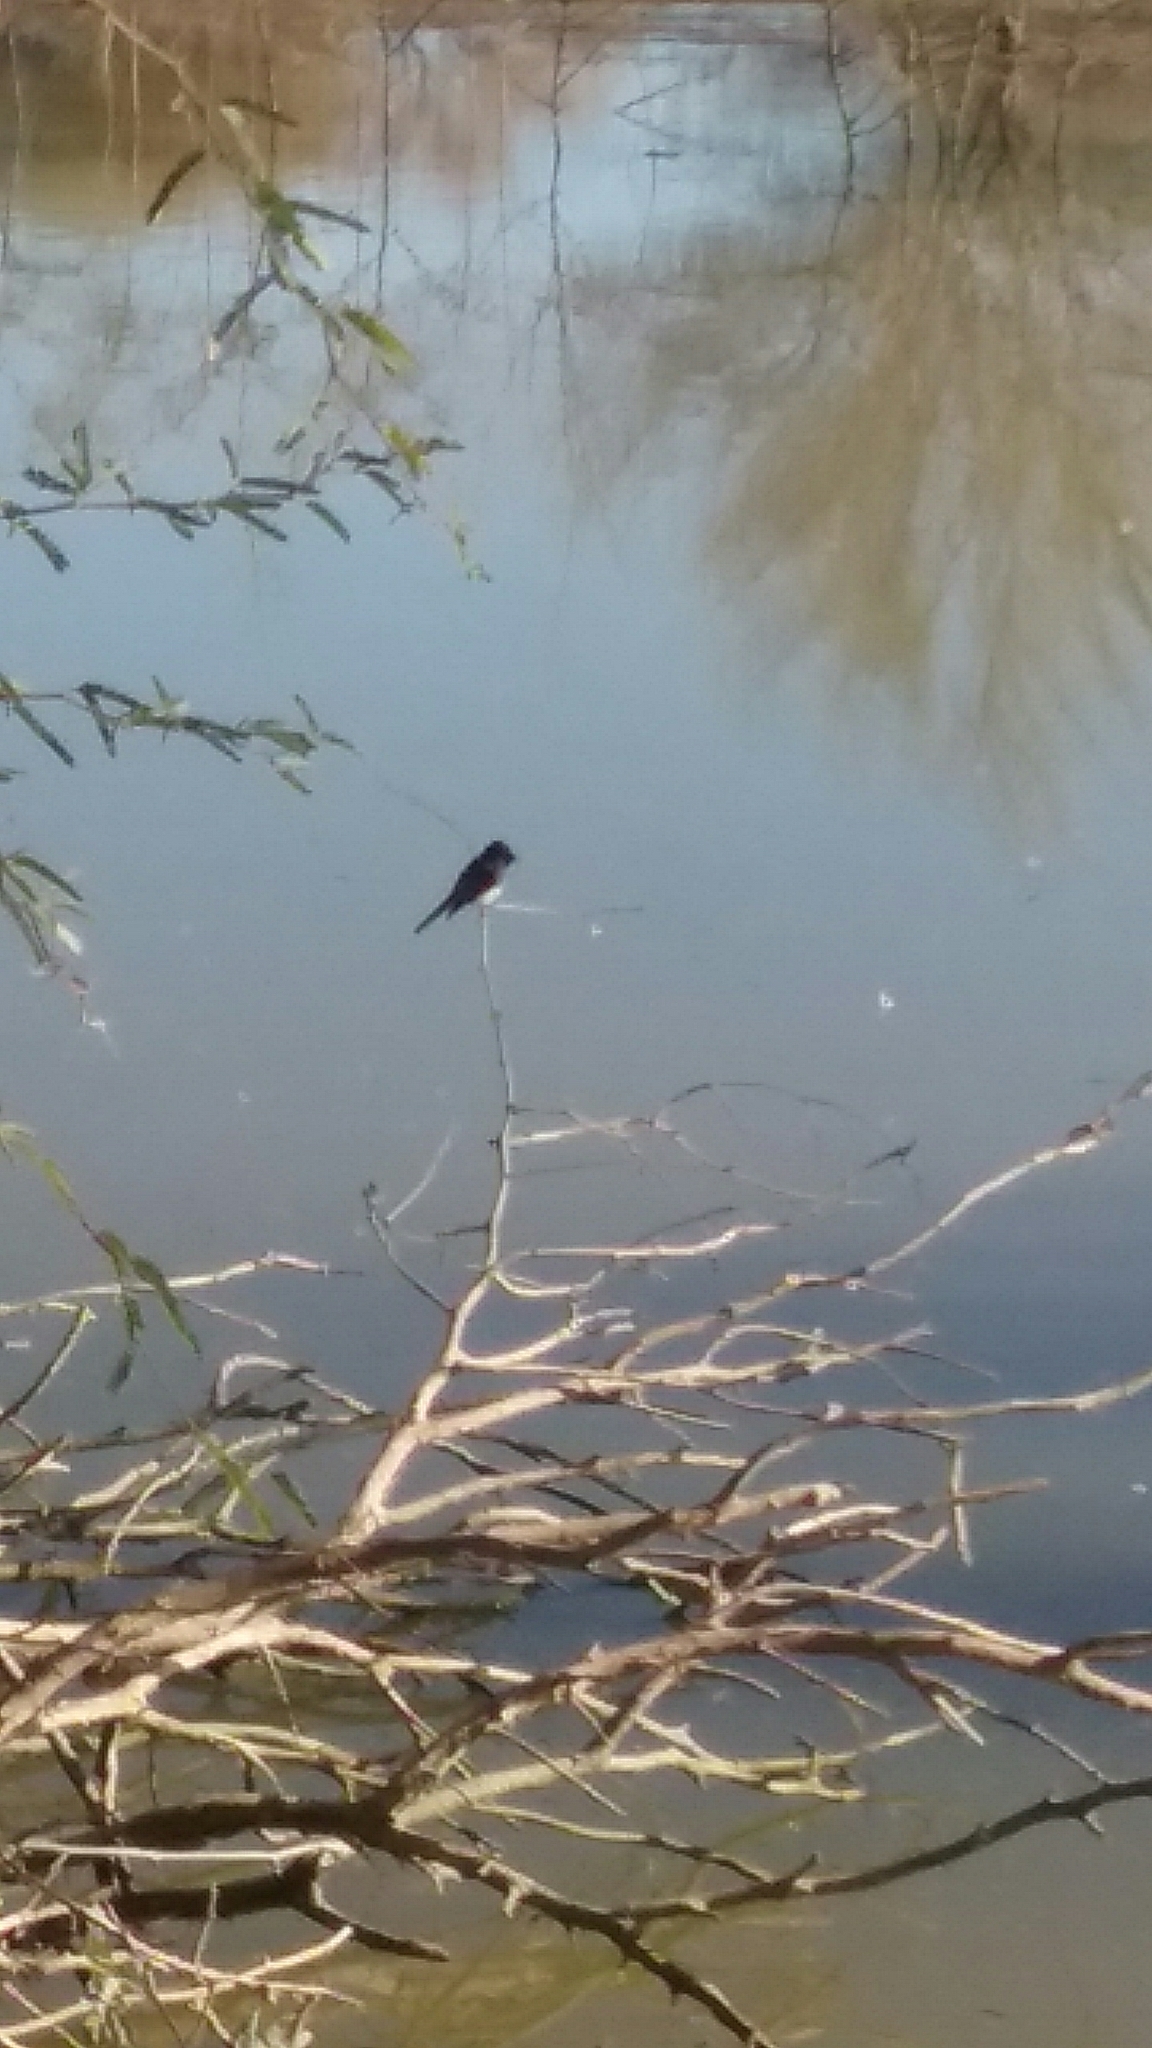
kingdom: Animalia
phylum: Chordata
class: Aves
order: Passeriformes
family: Tyrannidae
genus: Sayornis
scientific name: Sayornis nigricans
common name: Black phoebe
